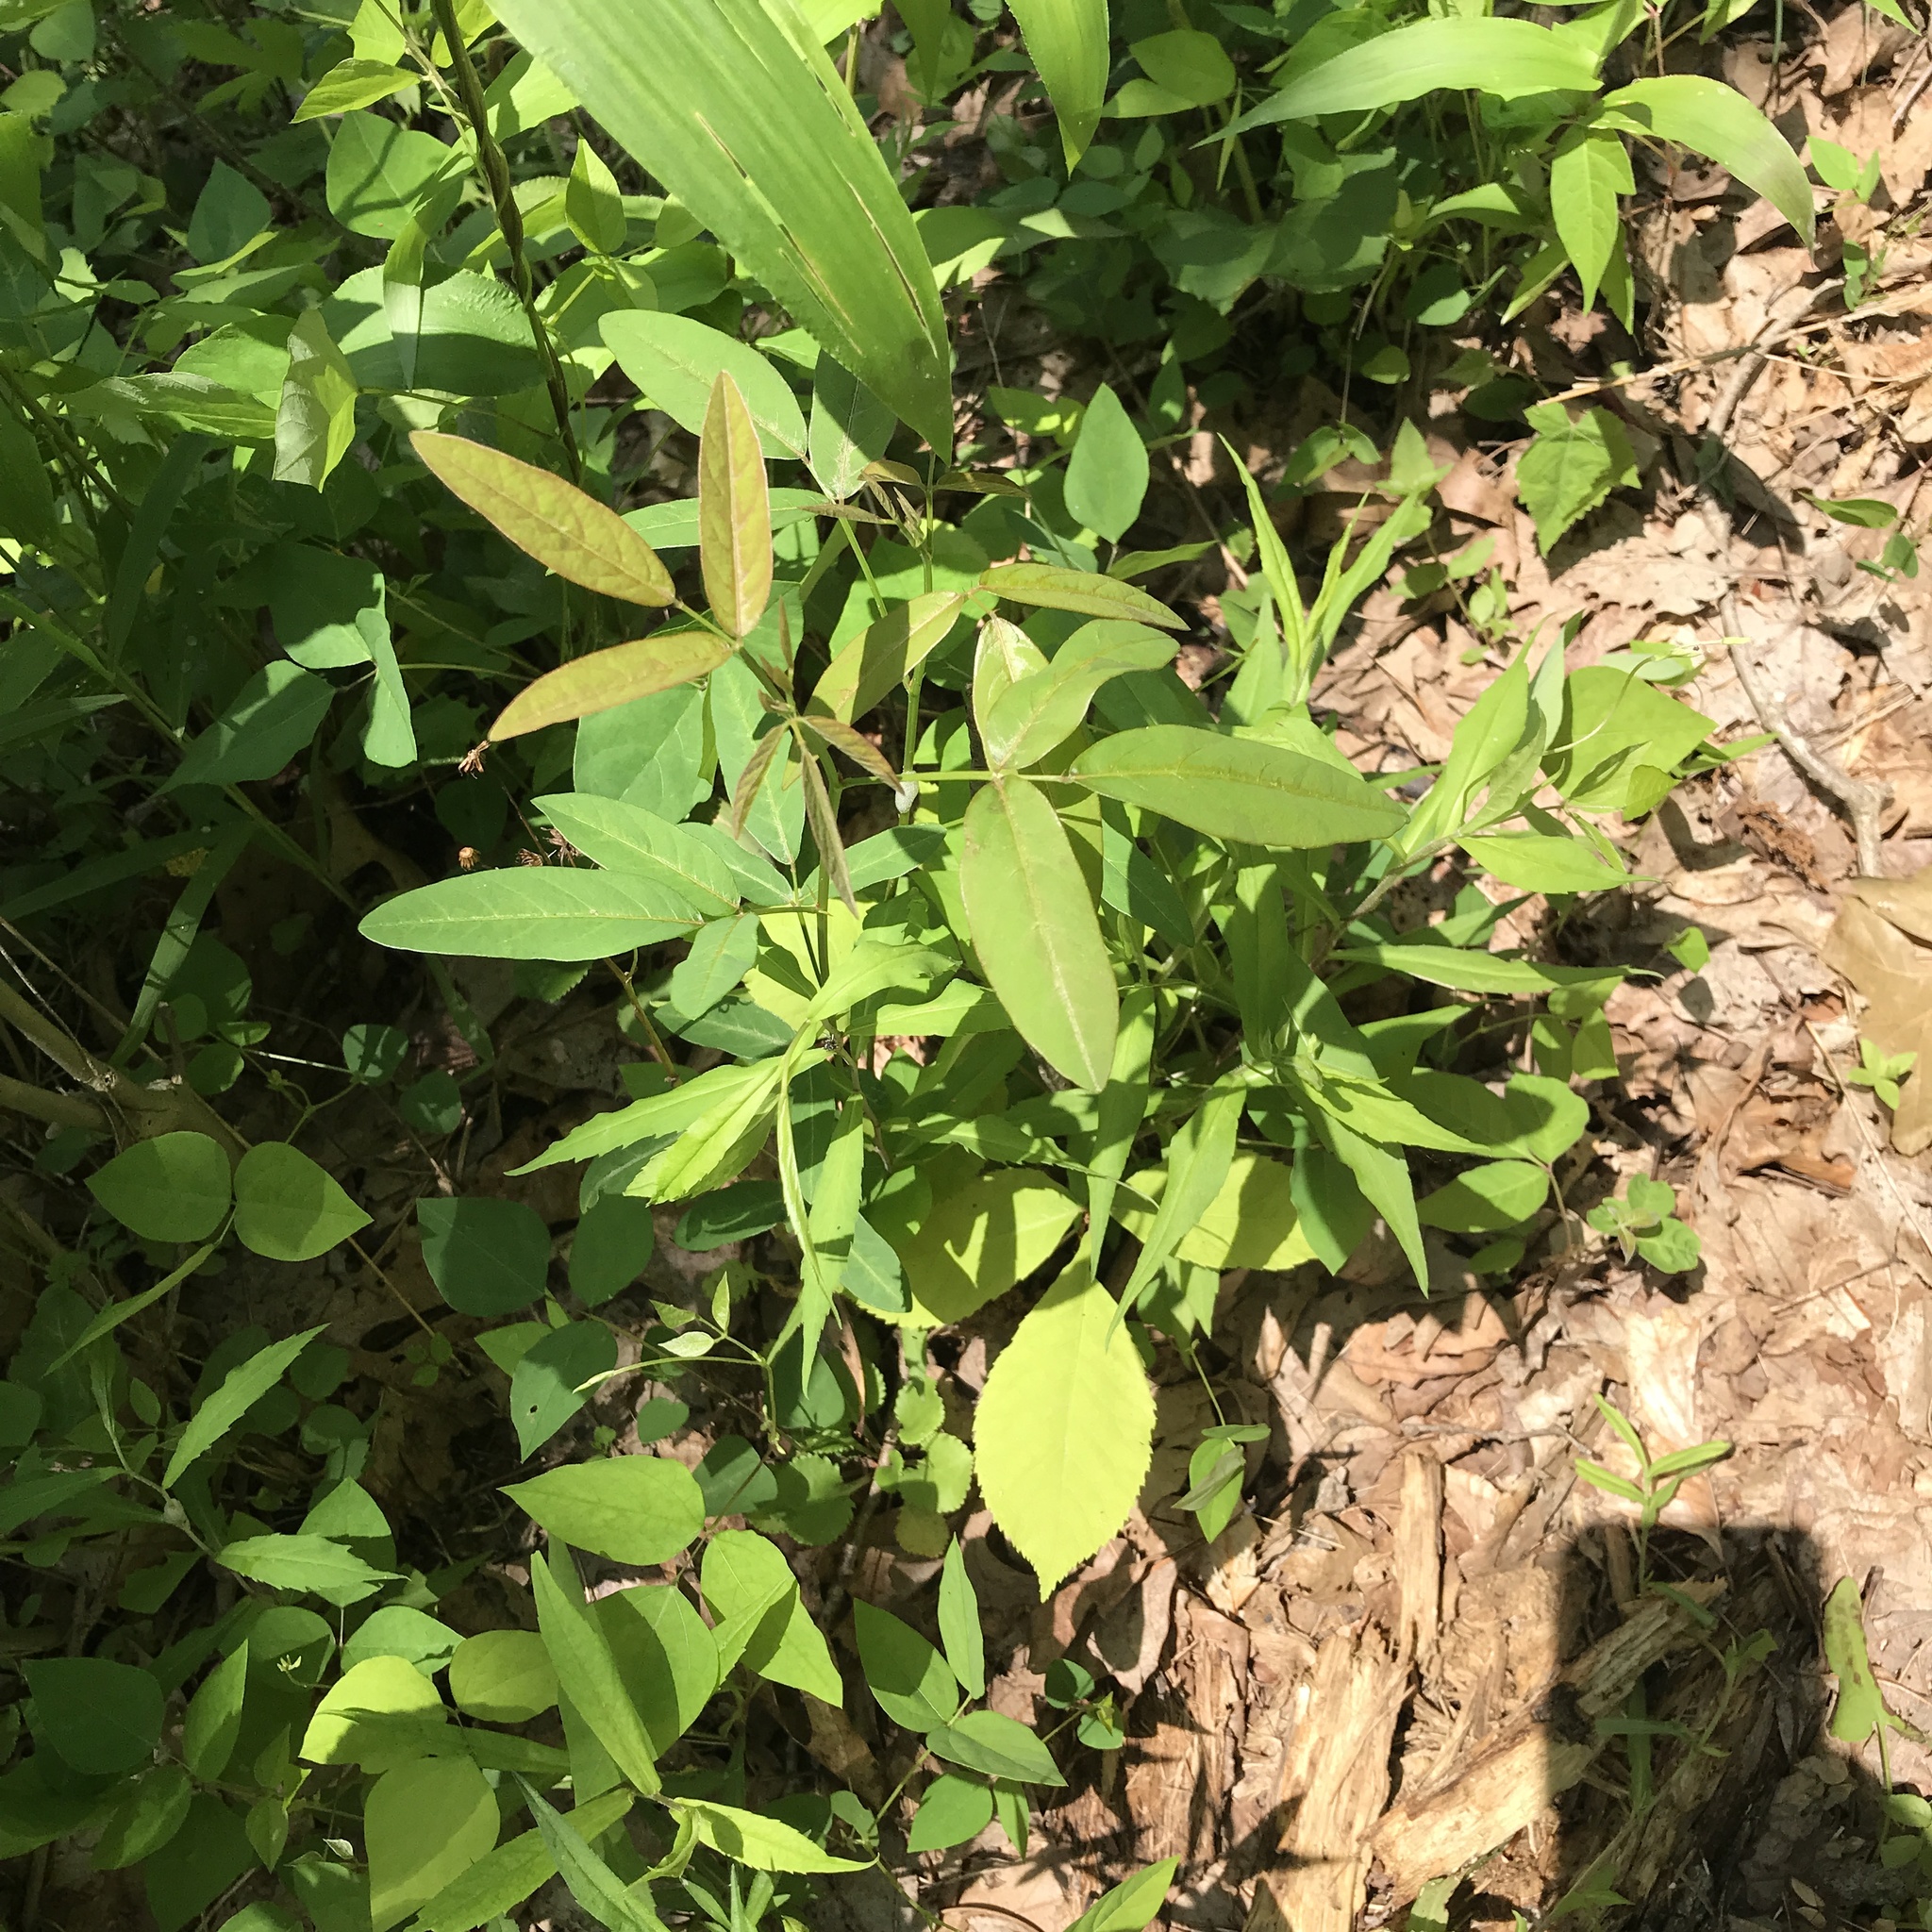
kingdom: Plantae
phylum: Tracheophyta
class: Magnoliopsida
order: Fabales
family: Fabaceae
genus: Desmodium
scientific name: Desmodium paniculatum
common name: Panicled tick-clover
